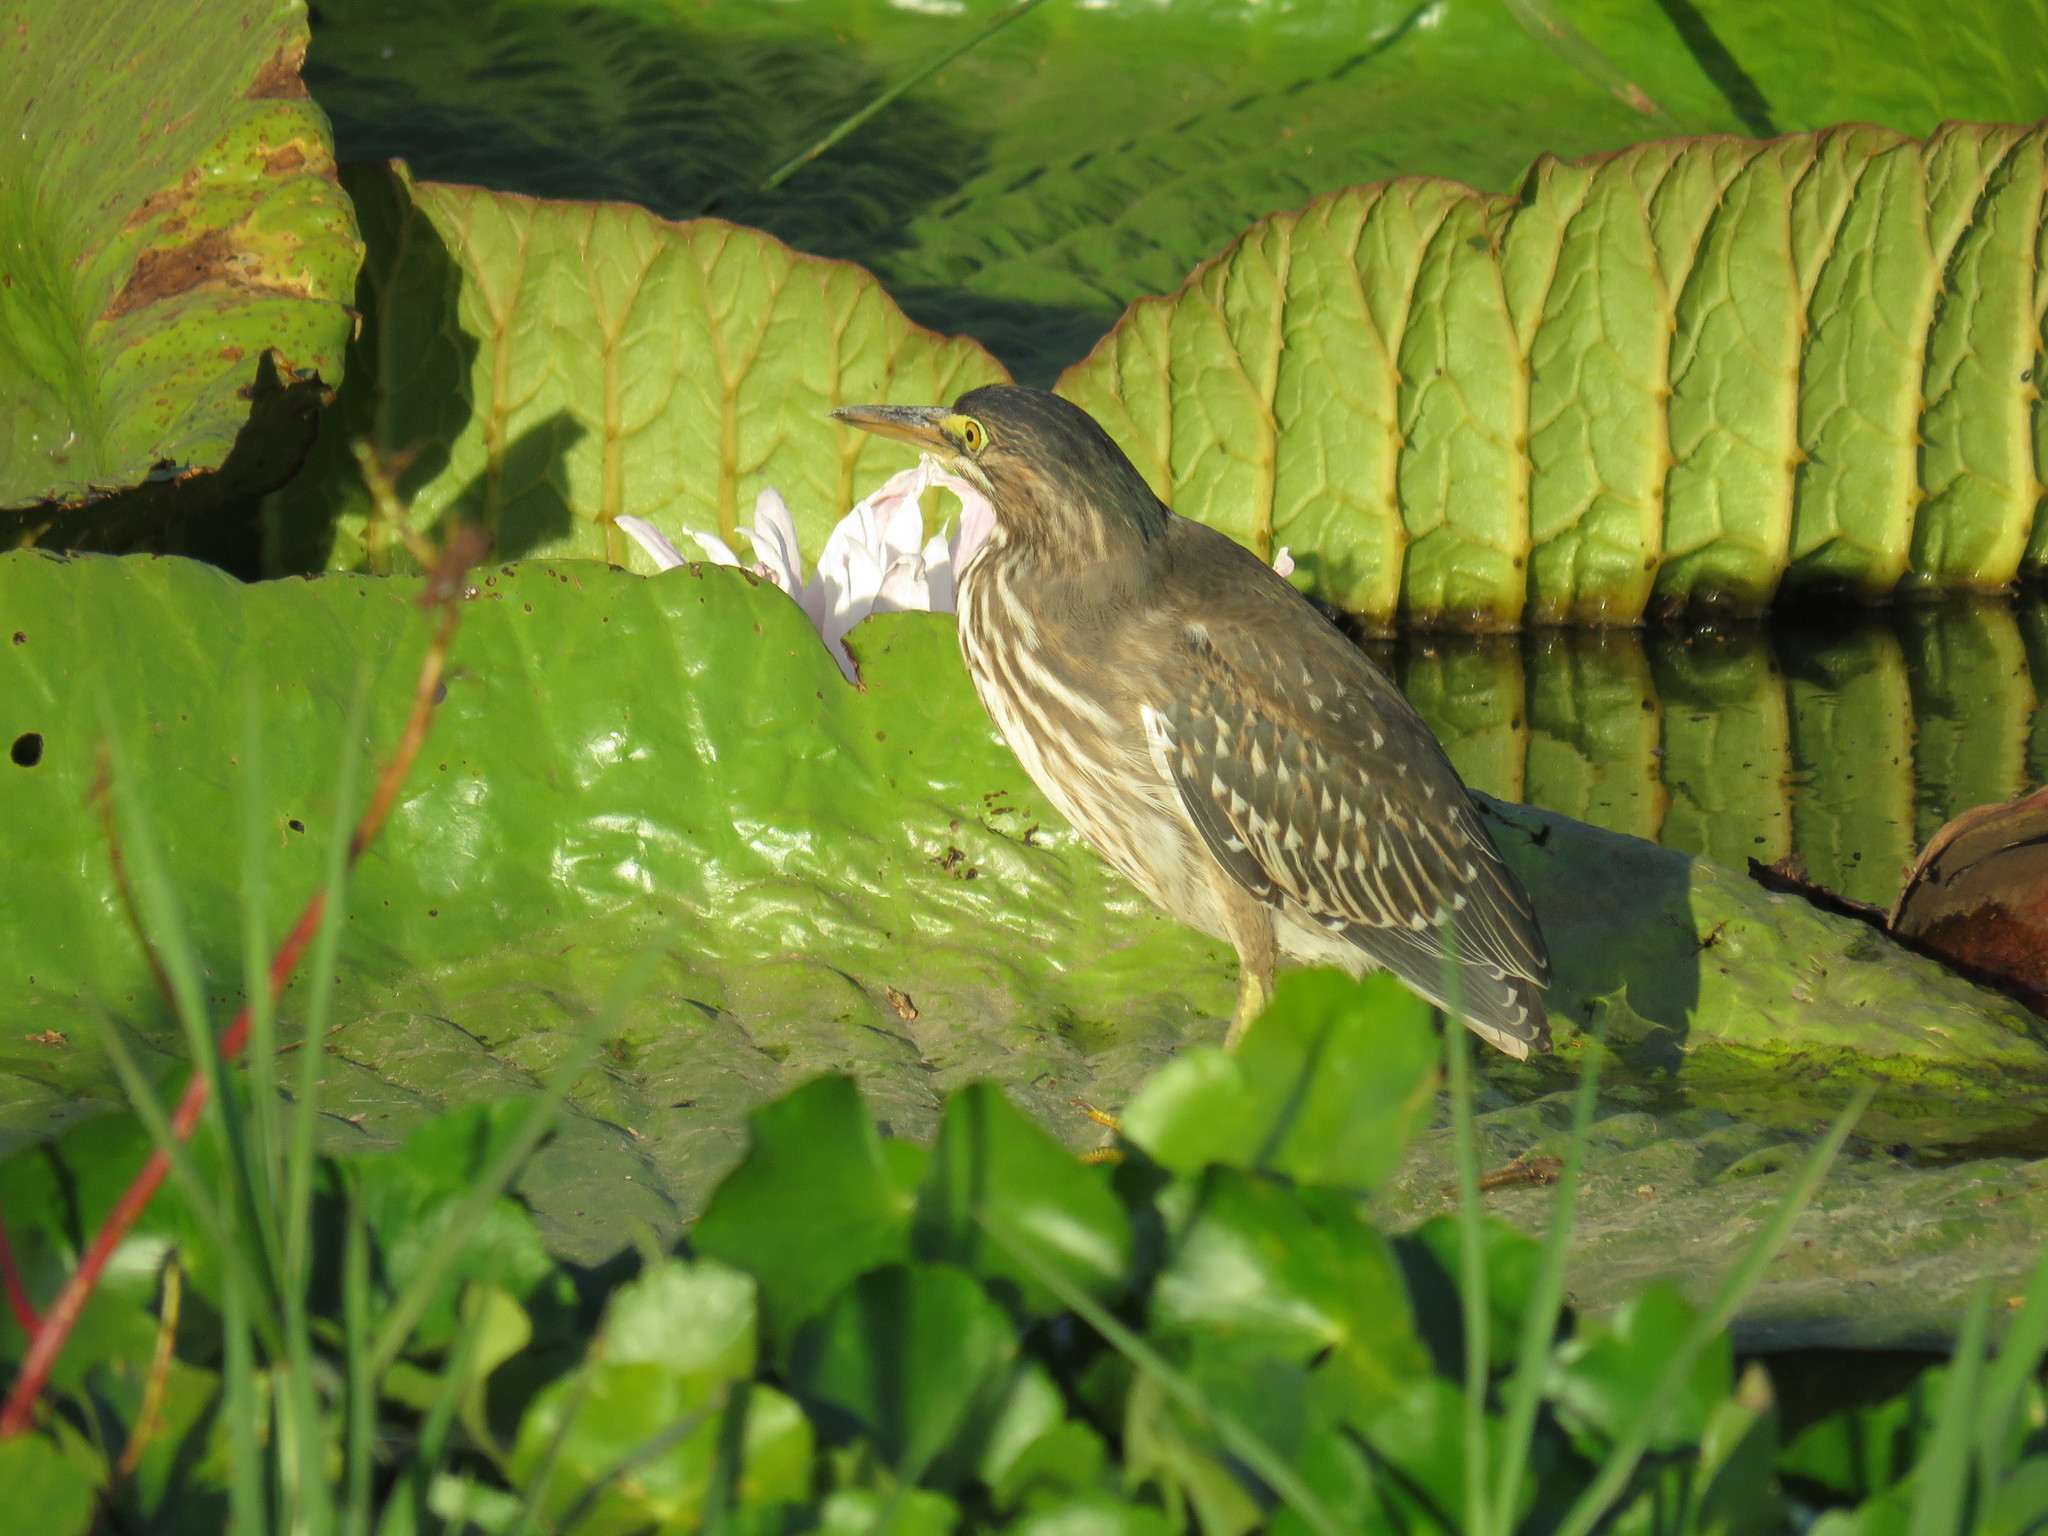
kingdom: Animalia
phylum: Chordata
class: Aves
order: Pelecaniformes
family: Ardeidae
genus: Butorides
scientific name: Butorides striata
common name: Striated heron
